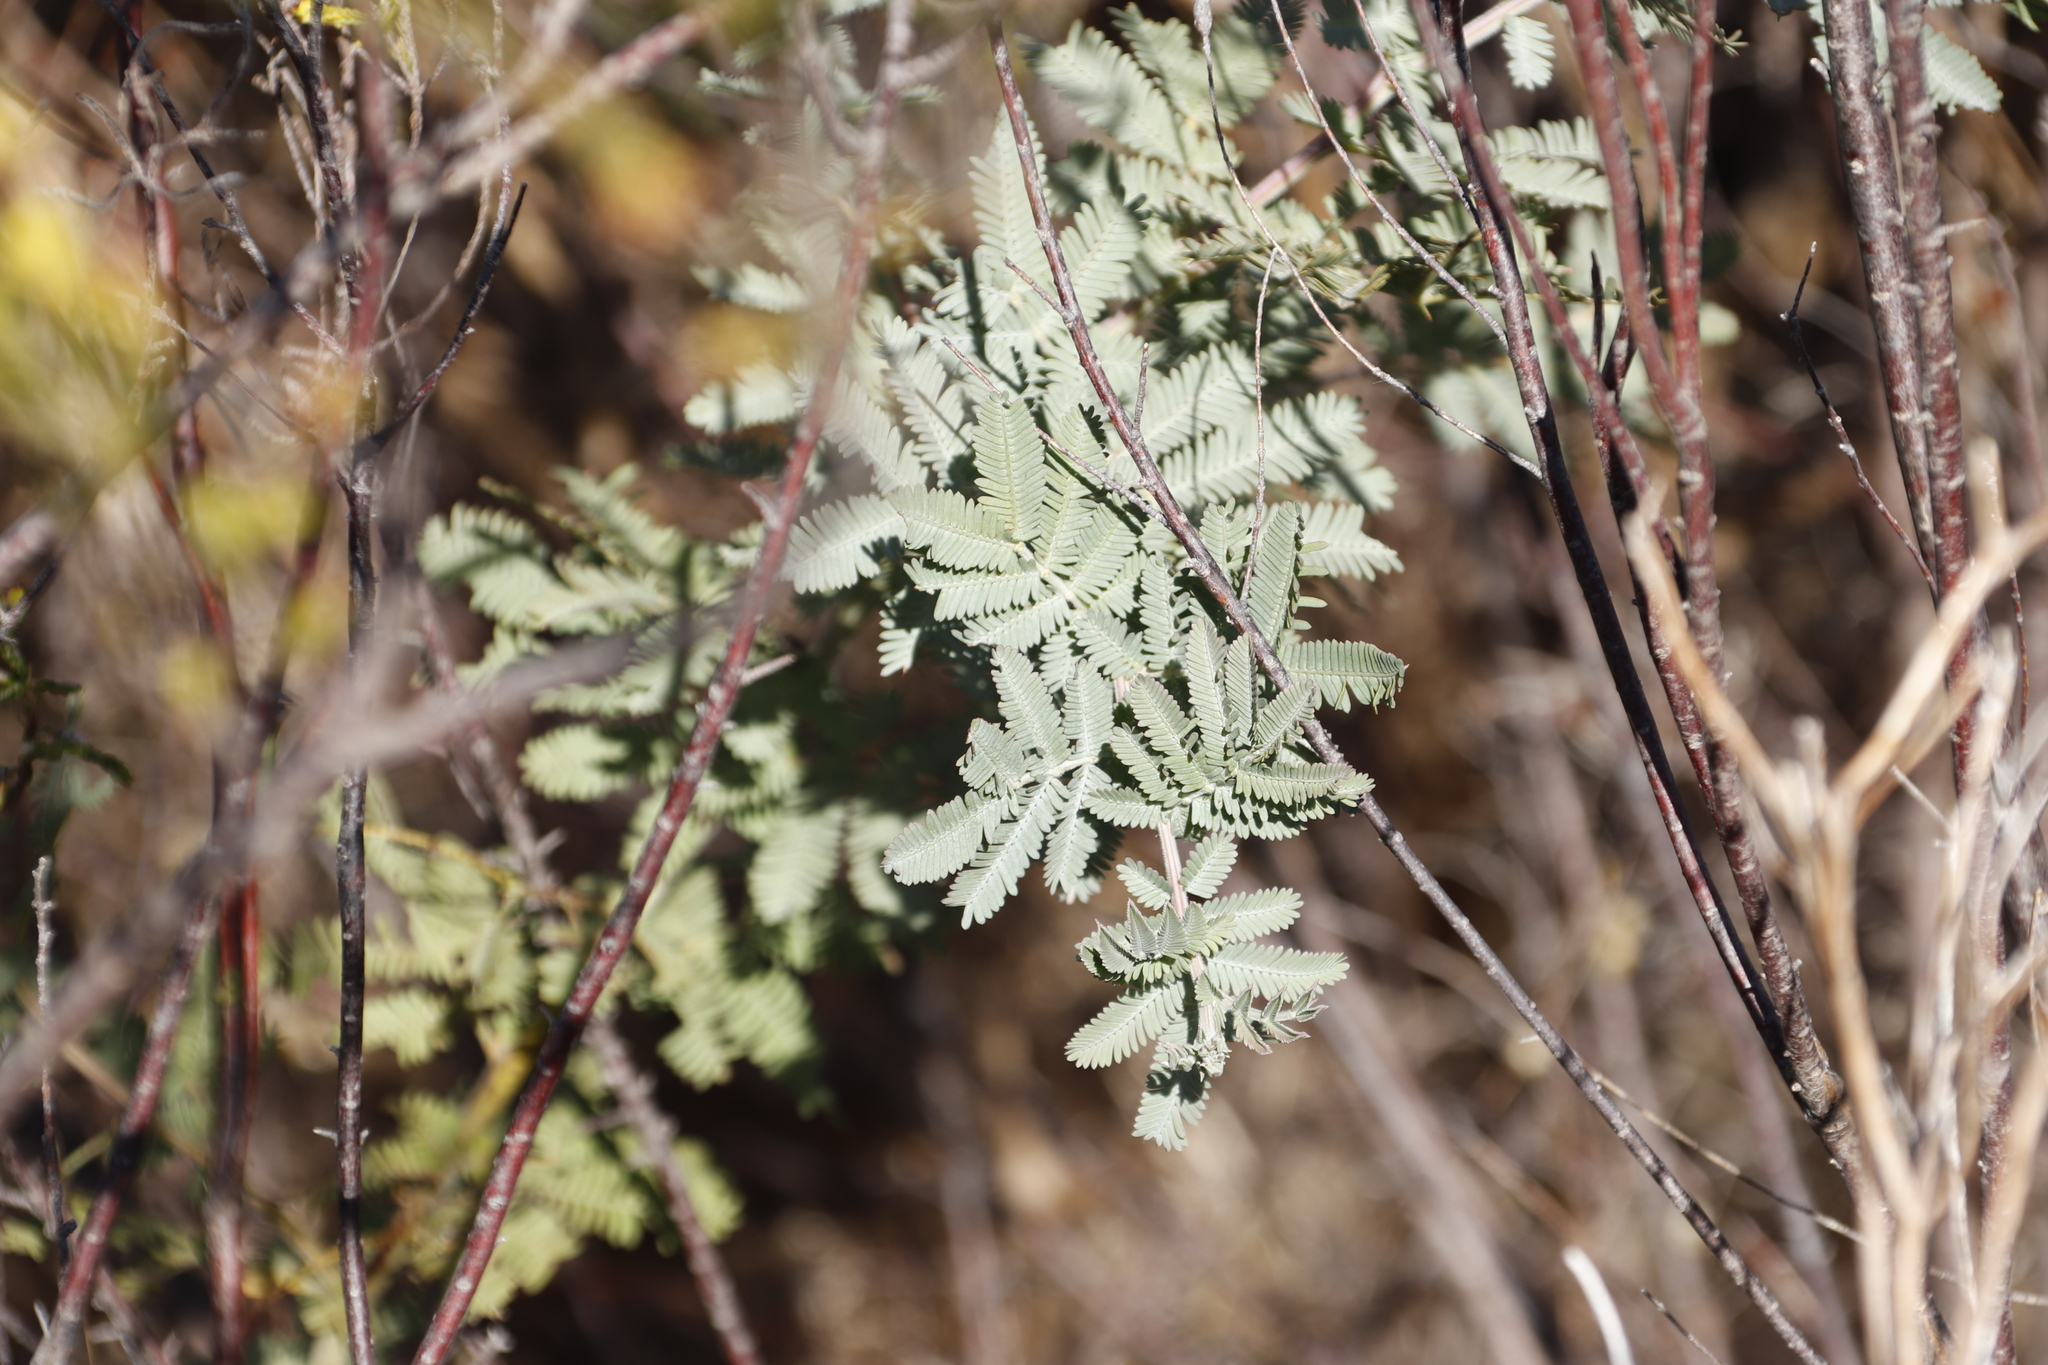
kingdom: Plantae
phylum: Tracheophyta
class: Magnoliopsida
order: Fabales
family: Fabaceae
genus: Acacia
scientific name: Acacia baileyana
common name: Cootamundra wattle
